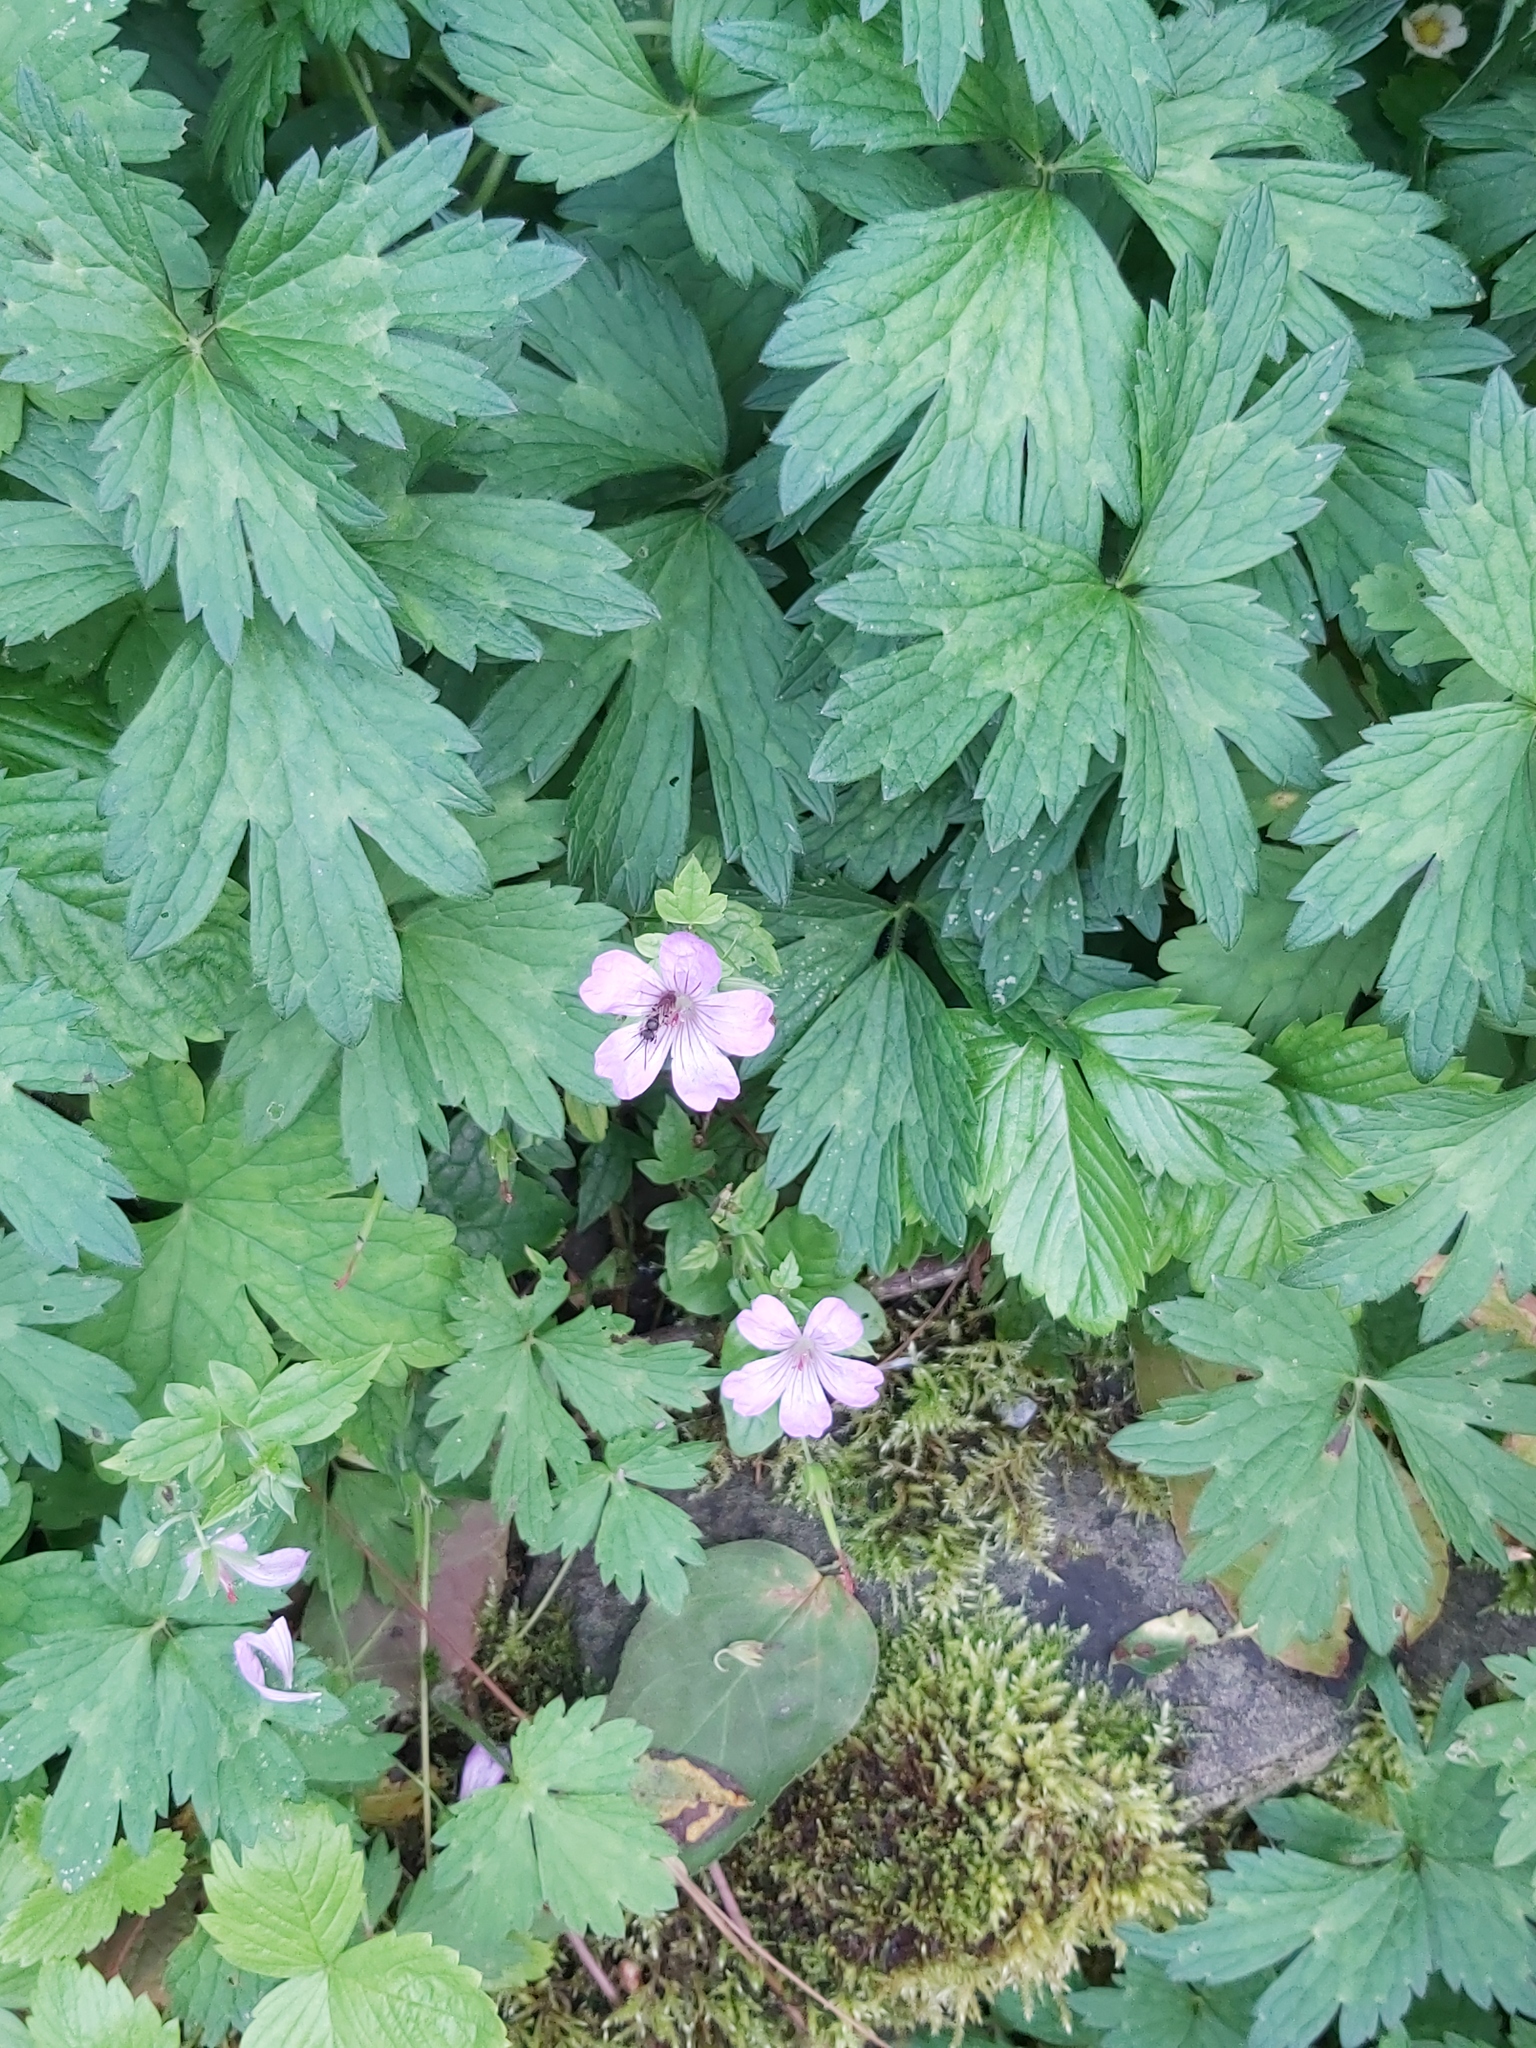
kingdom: Plantae
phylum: Tracheophyta
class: Magnoliopsida
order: Geraniales
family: Geraniaceae
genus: Geranium
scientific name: Geranium nodosum
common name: Knotted crane's-bill
